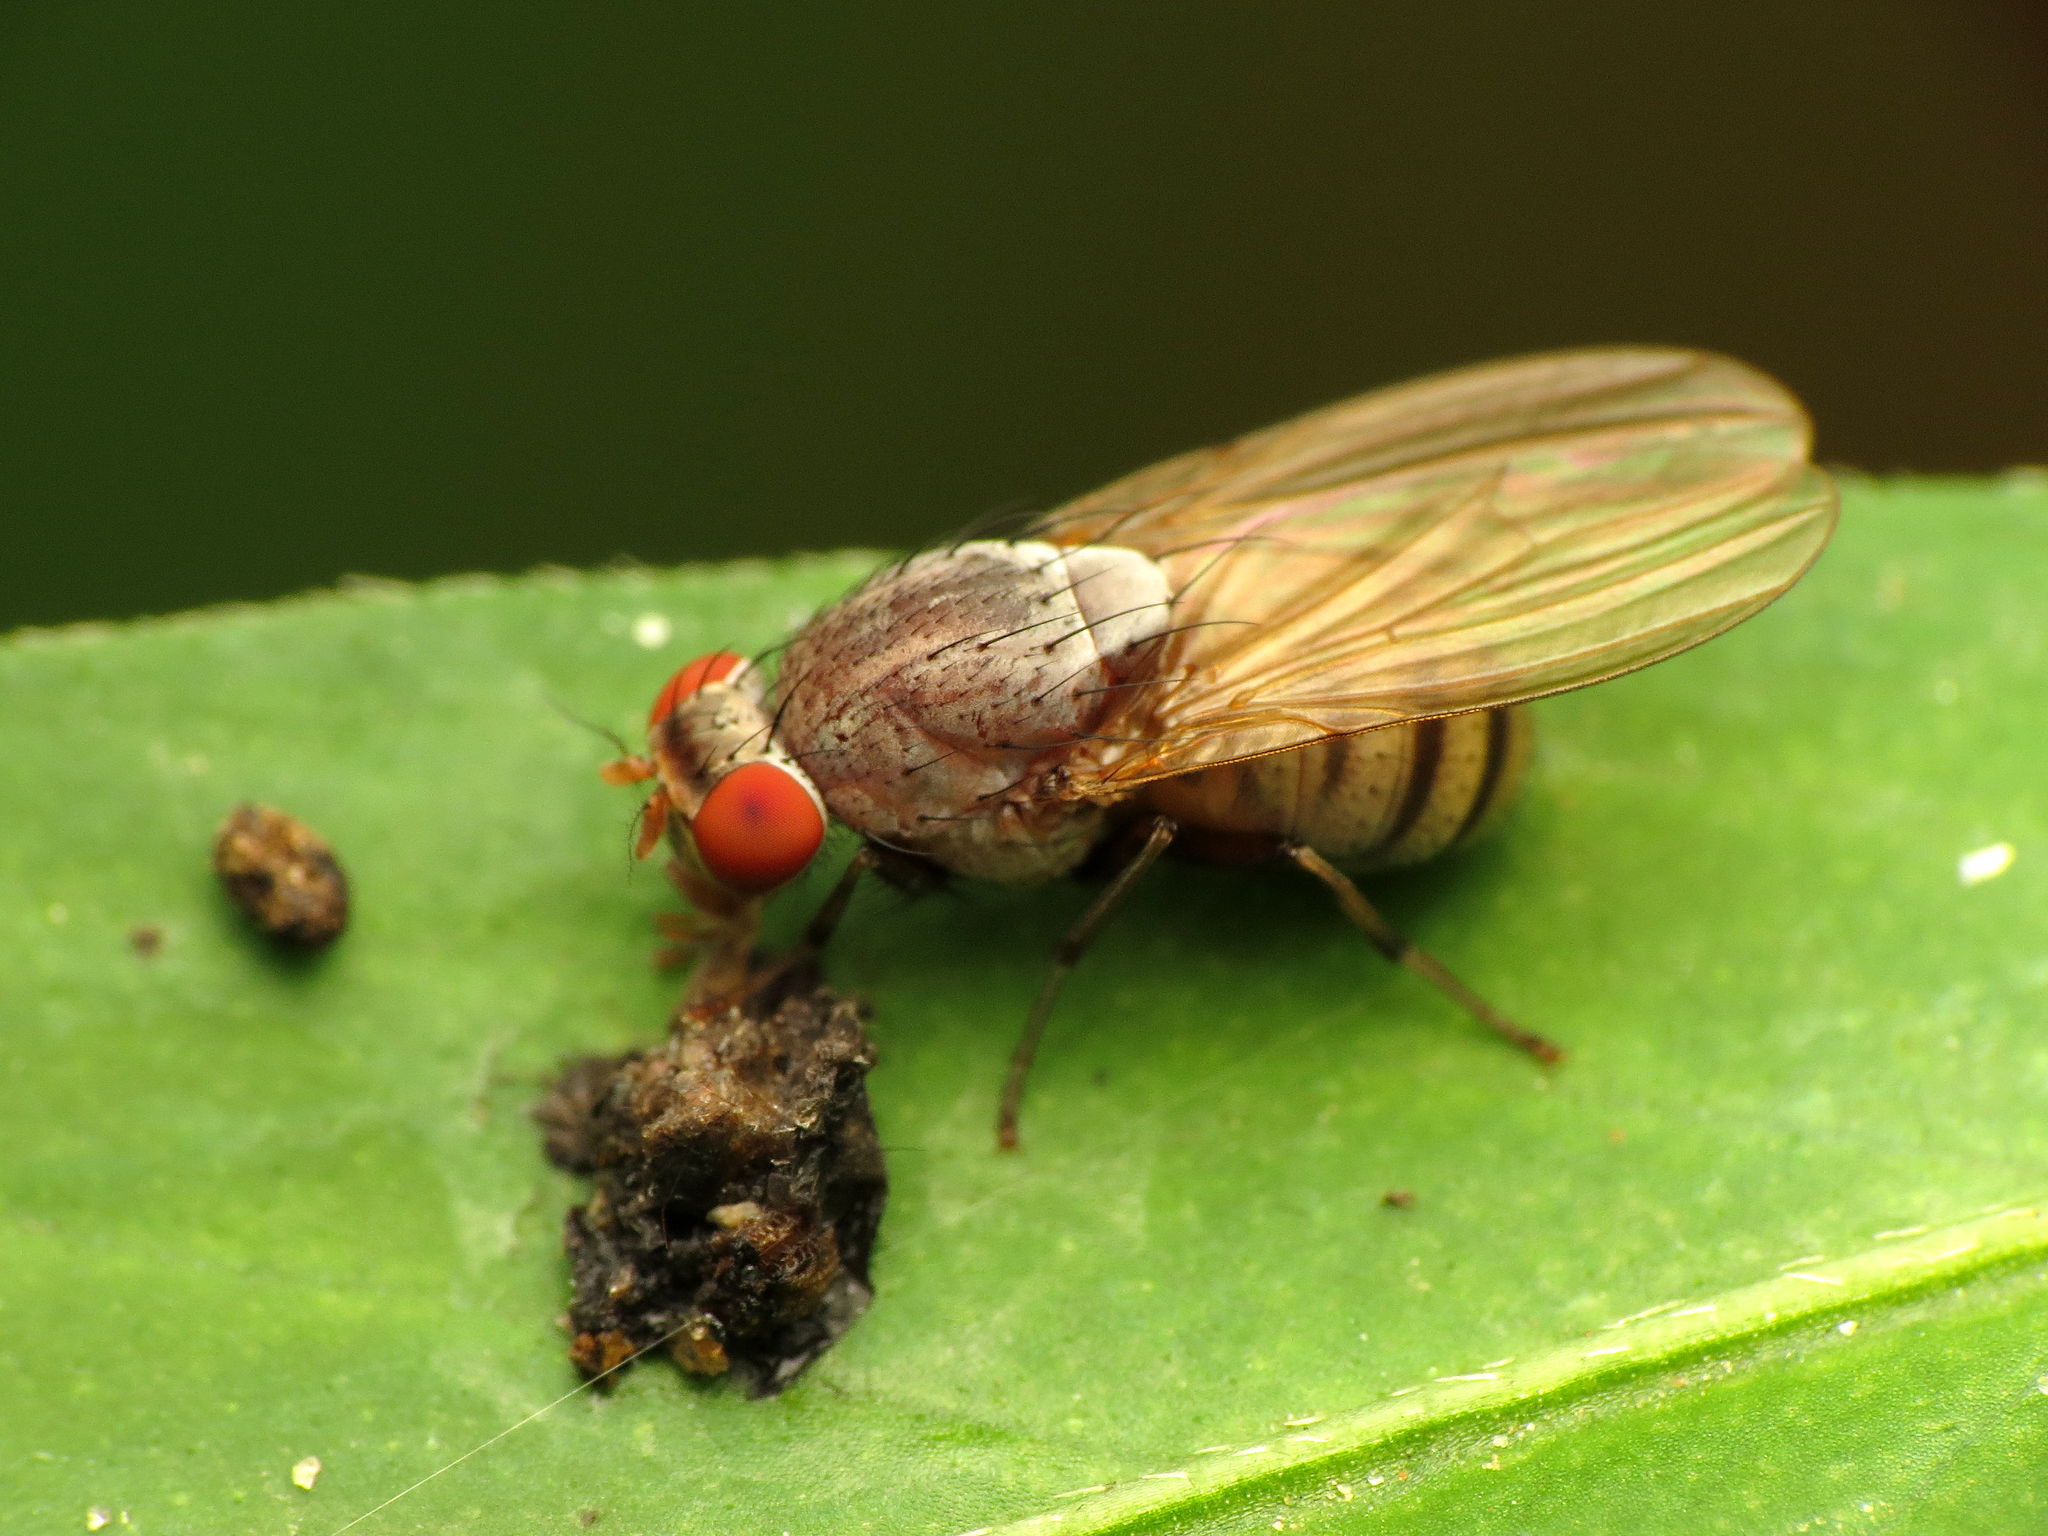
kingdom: Animalia
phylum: Arthropoda
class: Insecta
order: Diptera
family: Lauxaniidae
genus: Minettia
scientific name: Minettia magna
